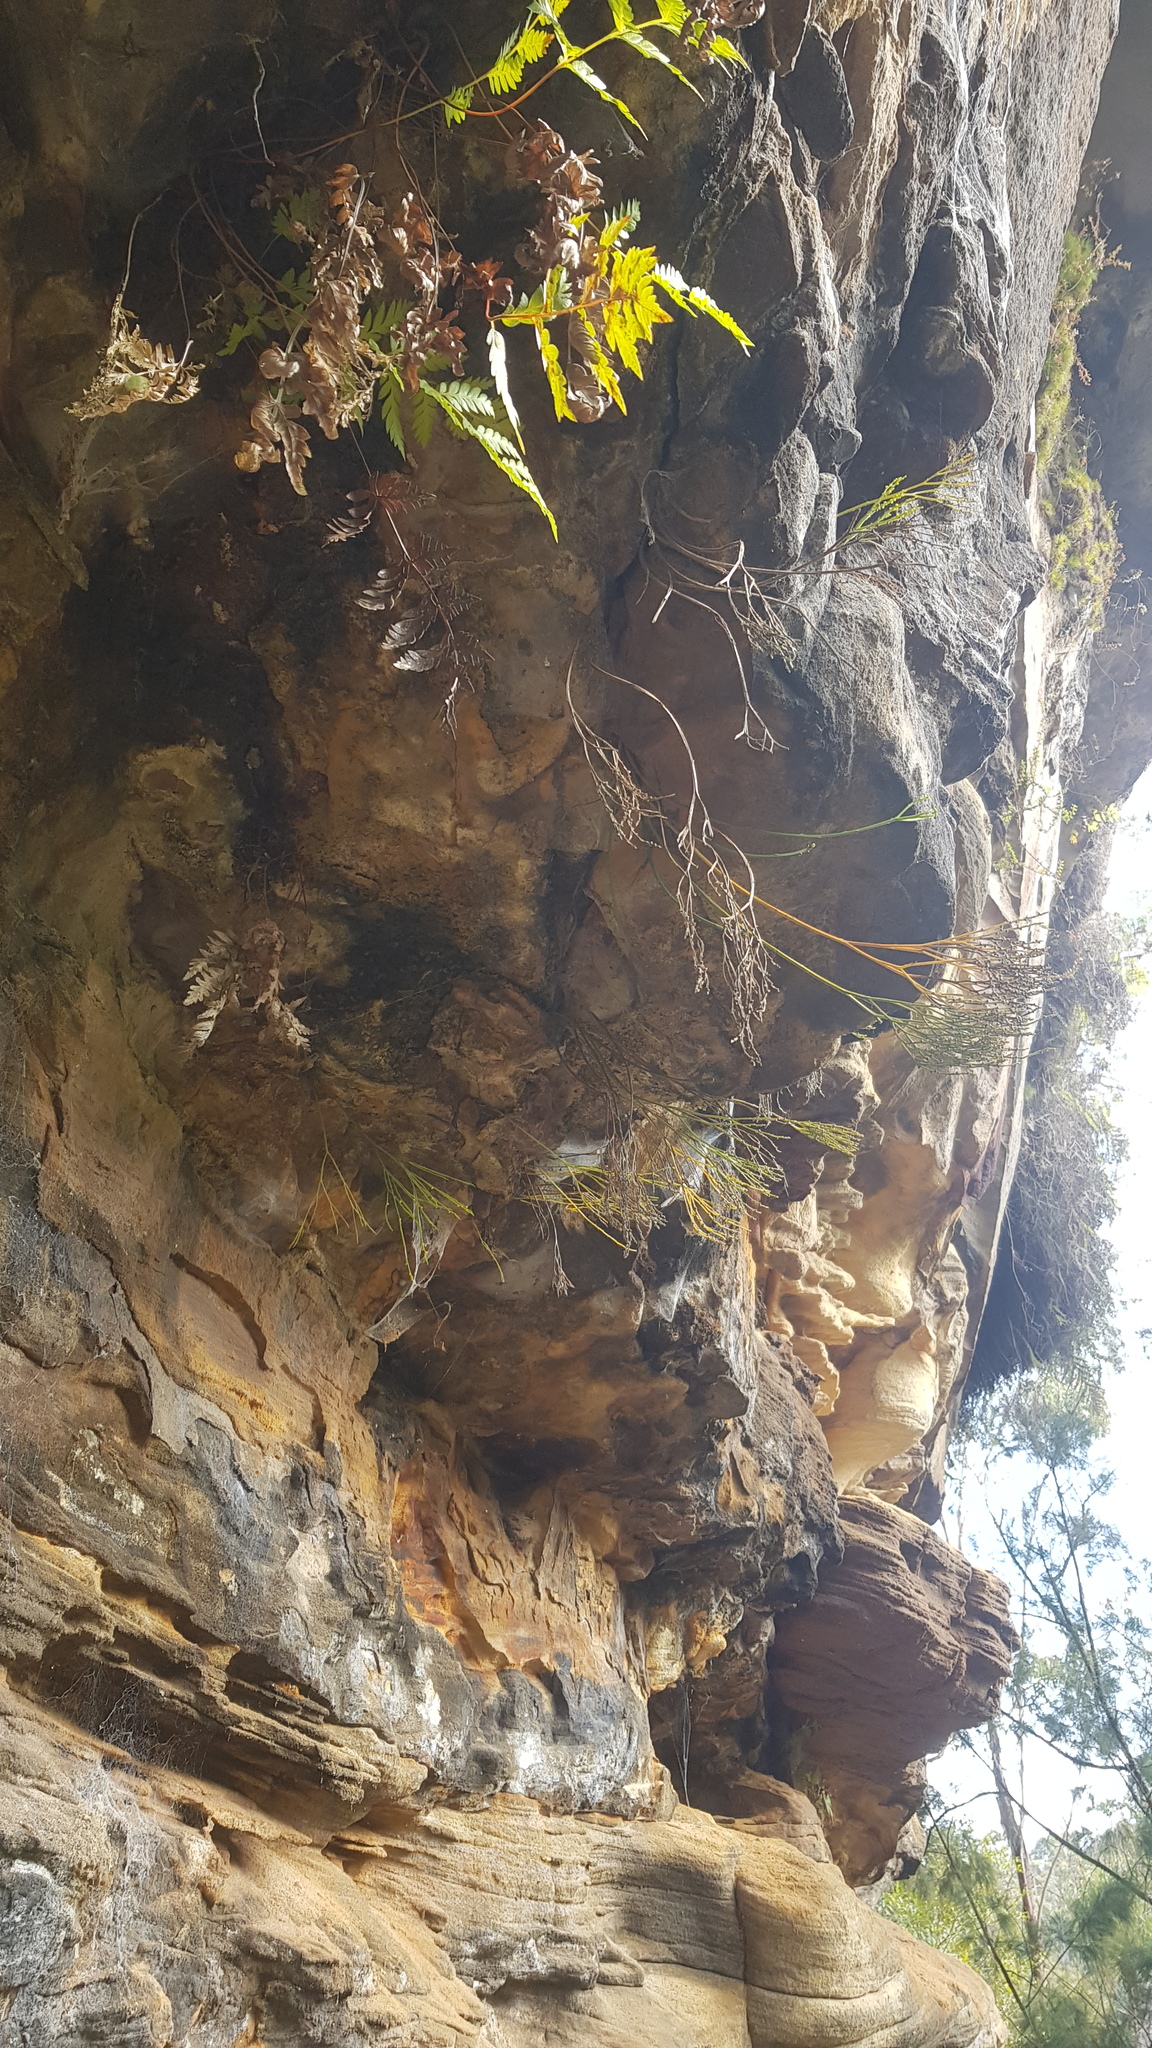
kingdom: Plantae
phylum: Tracheophyta
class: Polypodiopsida
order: Psilotales
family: Psilotaceae
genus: Psilotum
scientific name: Psilotum nudum
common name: Skeleton fork fern
